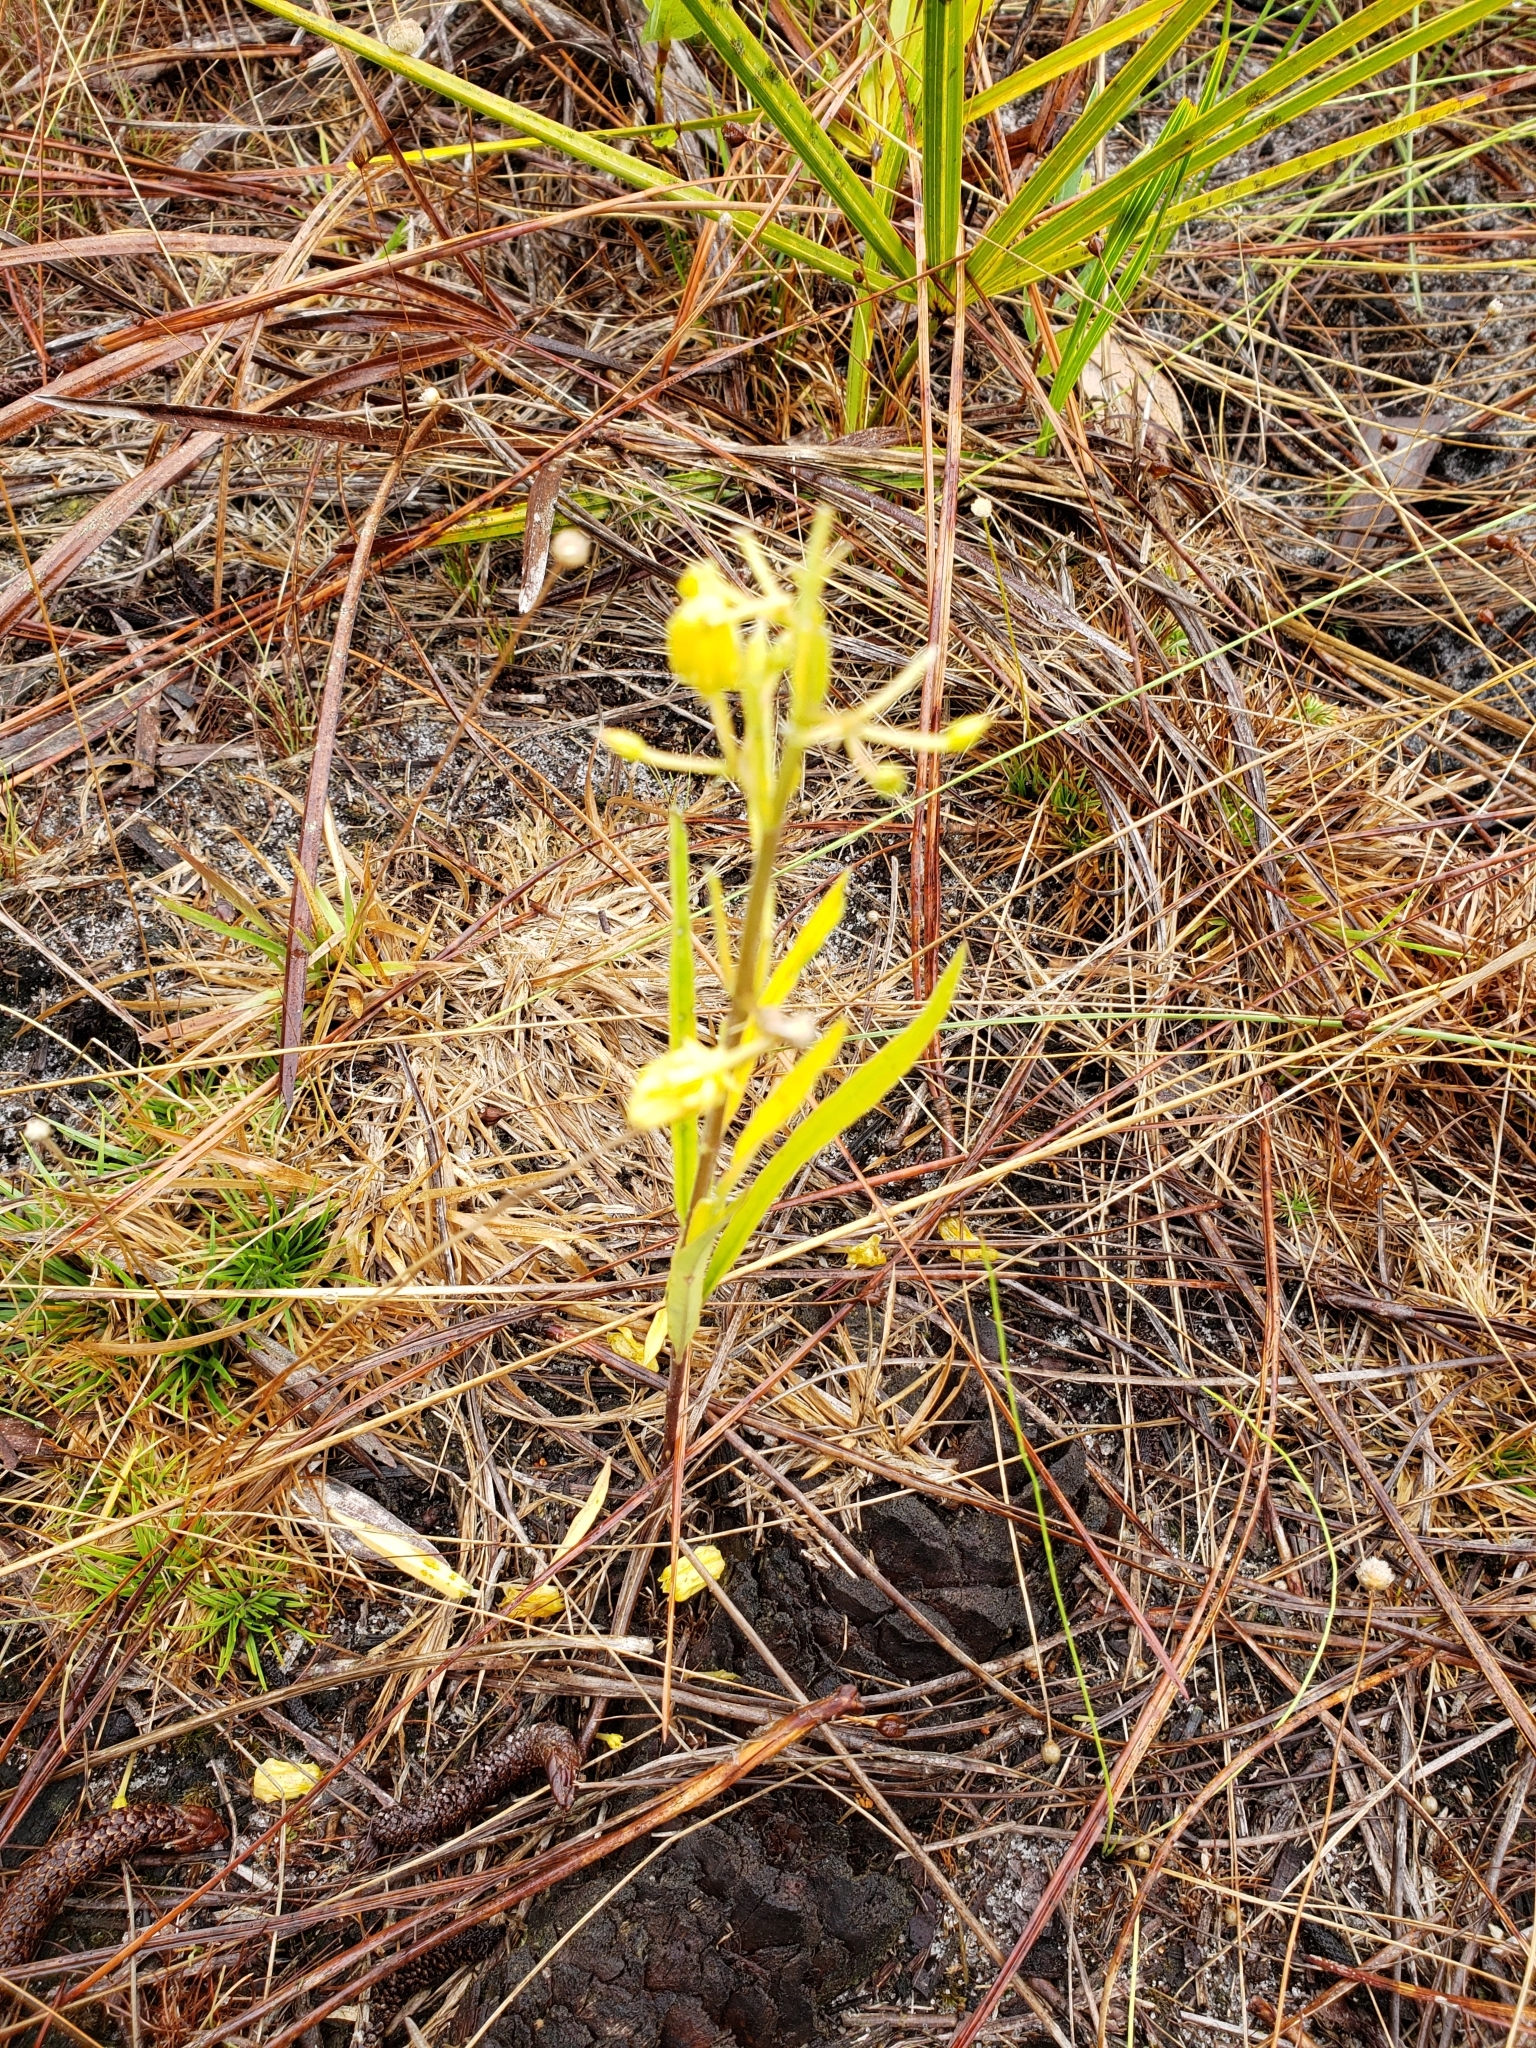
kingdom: Plantae
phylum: Tracheophyta
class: Magnoliopsida
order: Gentianales
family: Apocynaceae
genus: Asclepias
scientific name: Asclepias pedicellata
